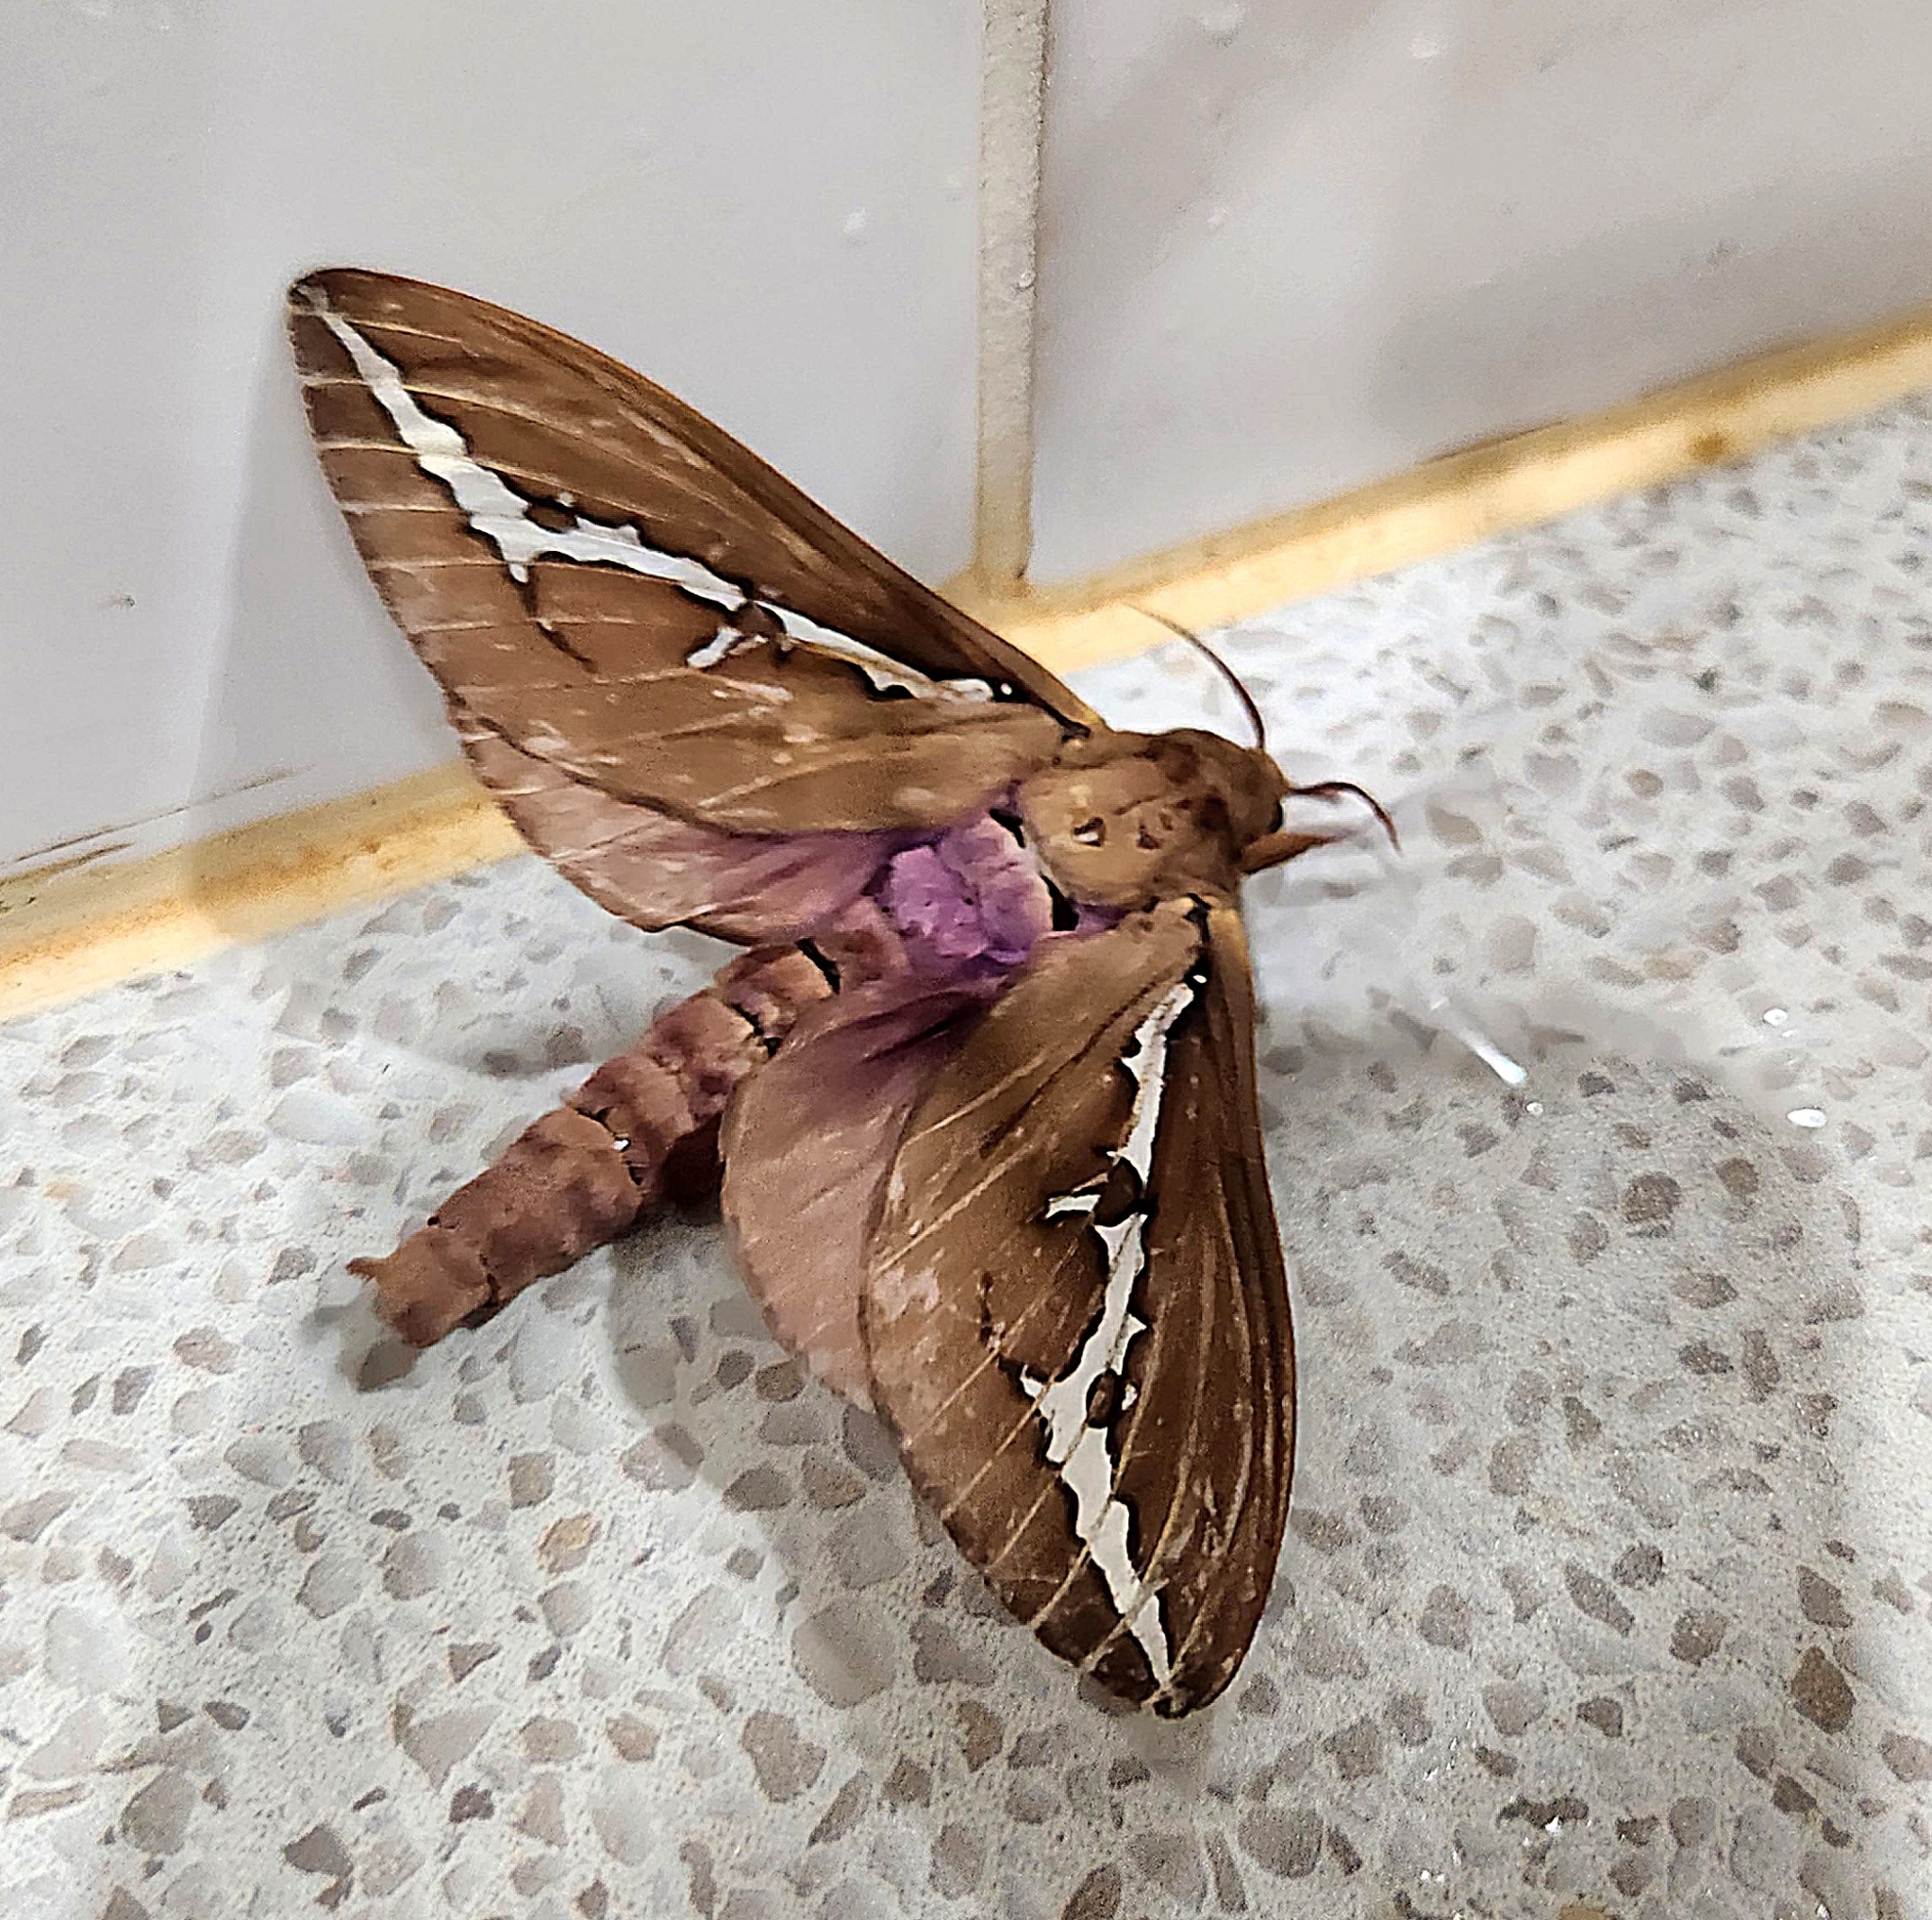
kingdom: Animalia
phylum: Arthropoda
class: Insecta
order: Lepidoptera
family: Hepialidae
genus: Abantiades
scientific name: Abantiades barcas
